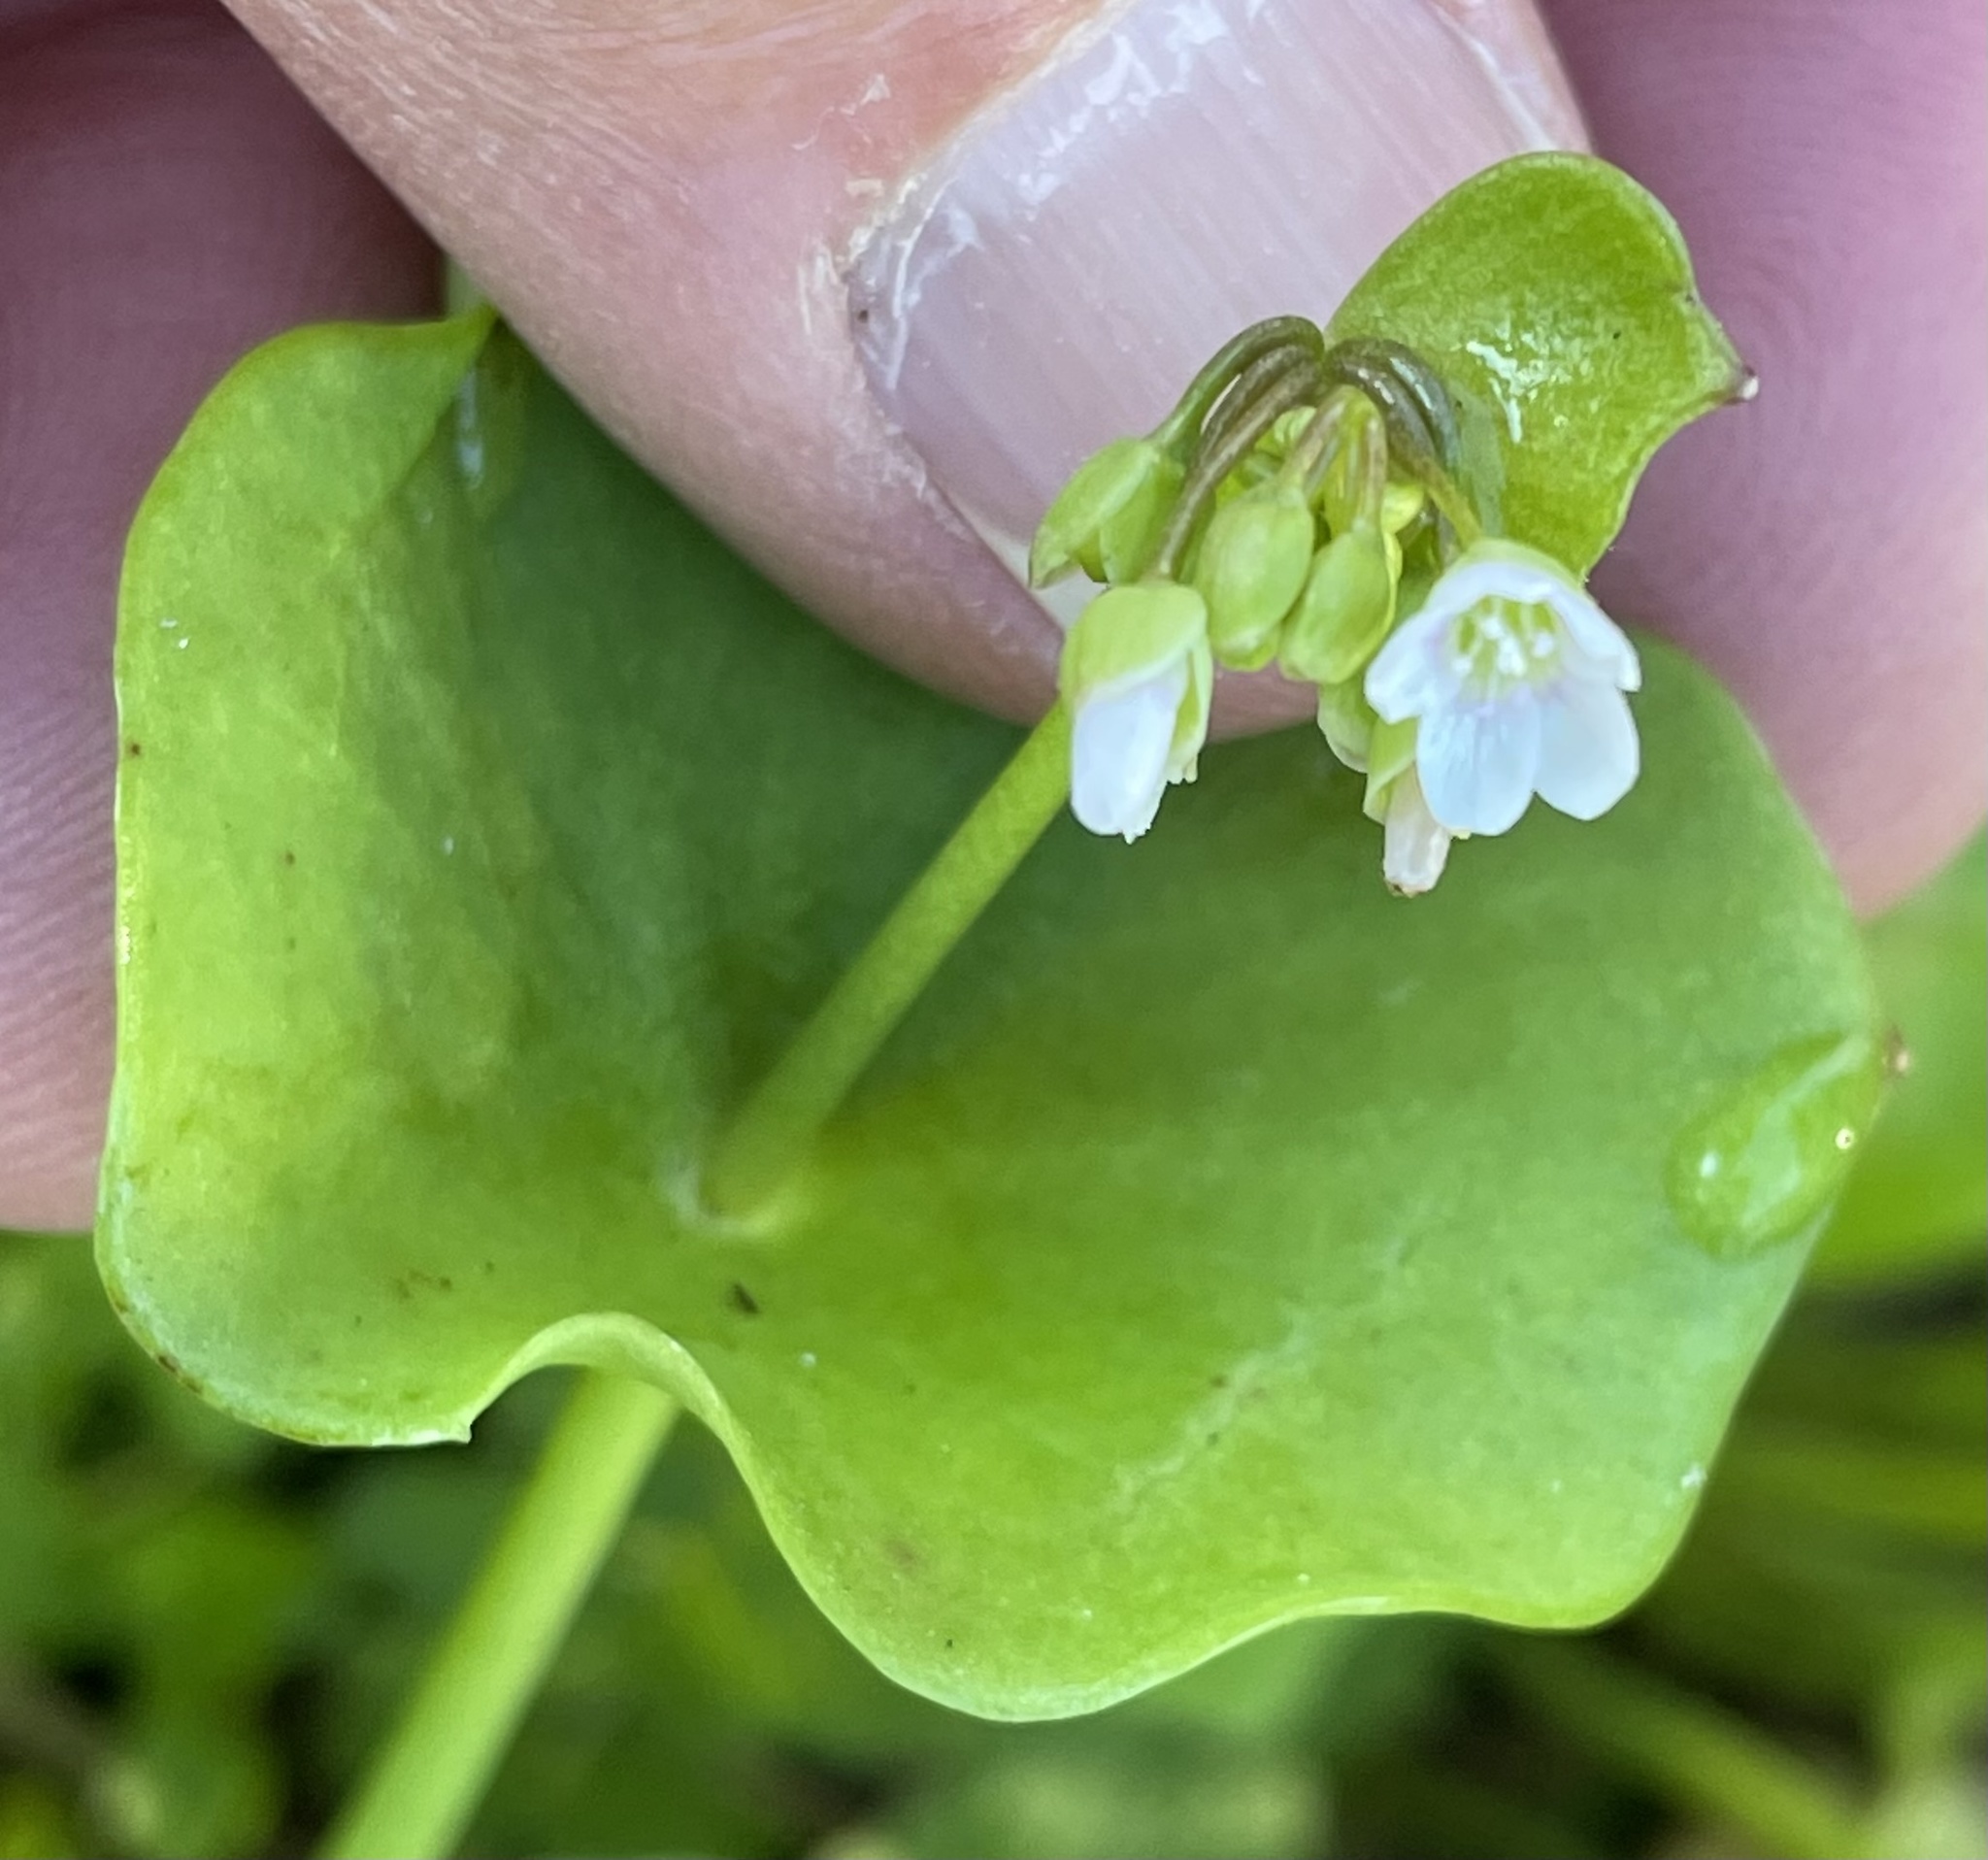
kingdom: Plantae
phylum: Tracheophyta
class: Magnoliopsida
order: Caryophyllales
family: Montiaceae
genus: Claytonia
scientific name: Claytonia perfoliata
